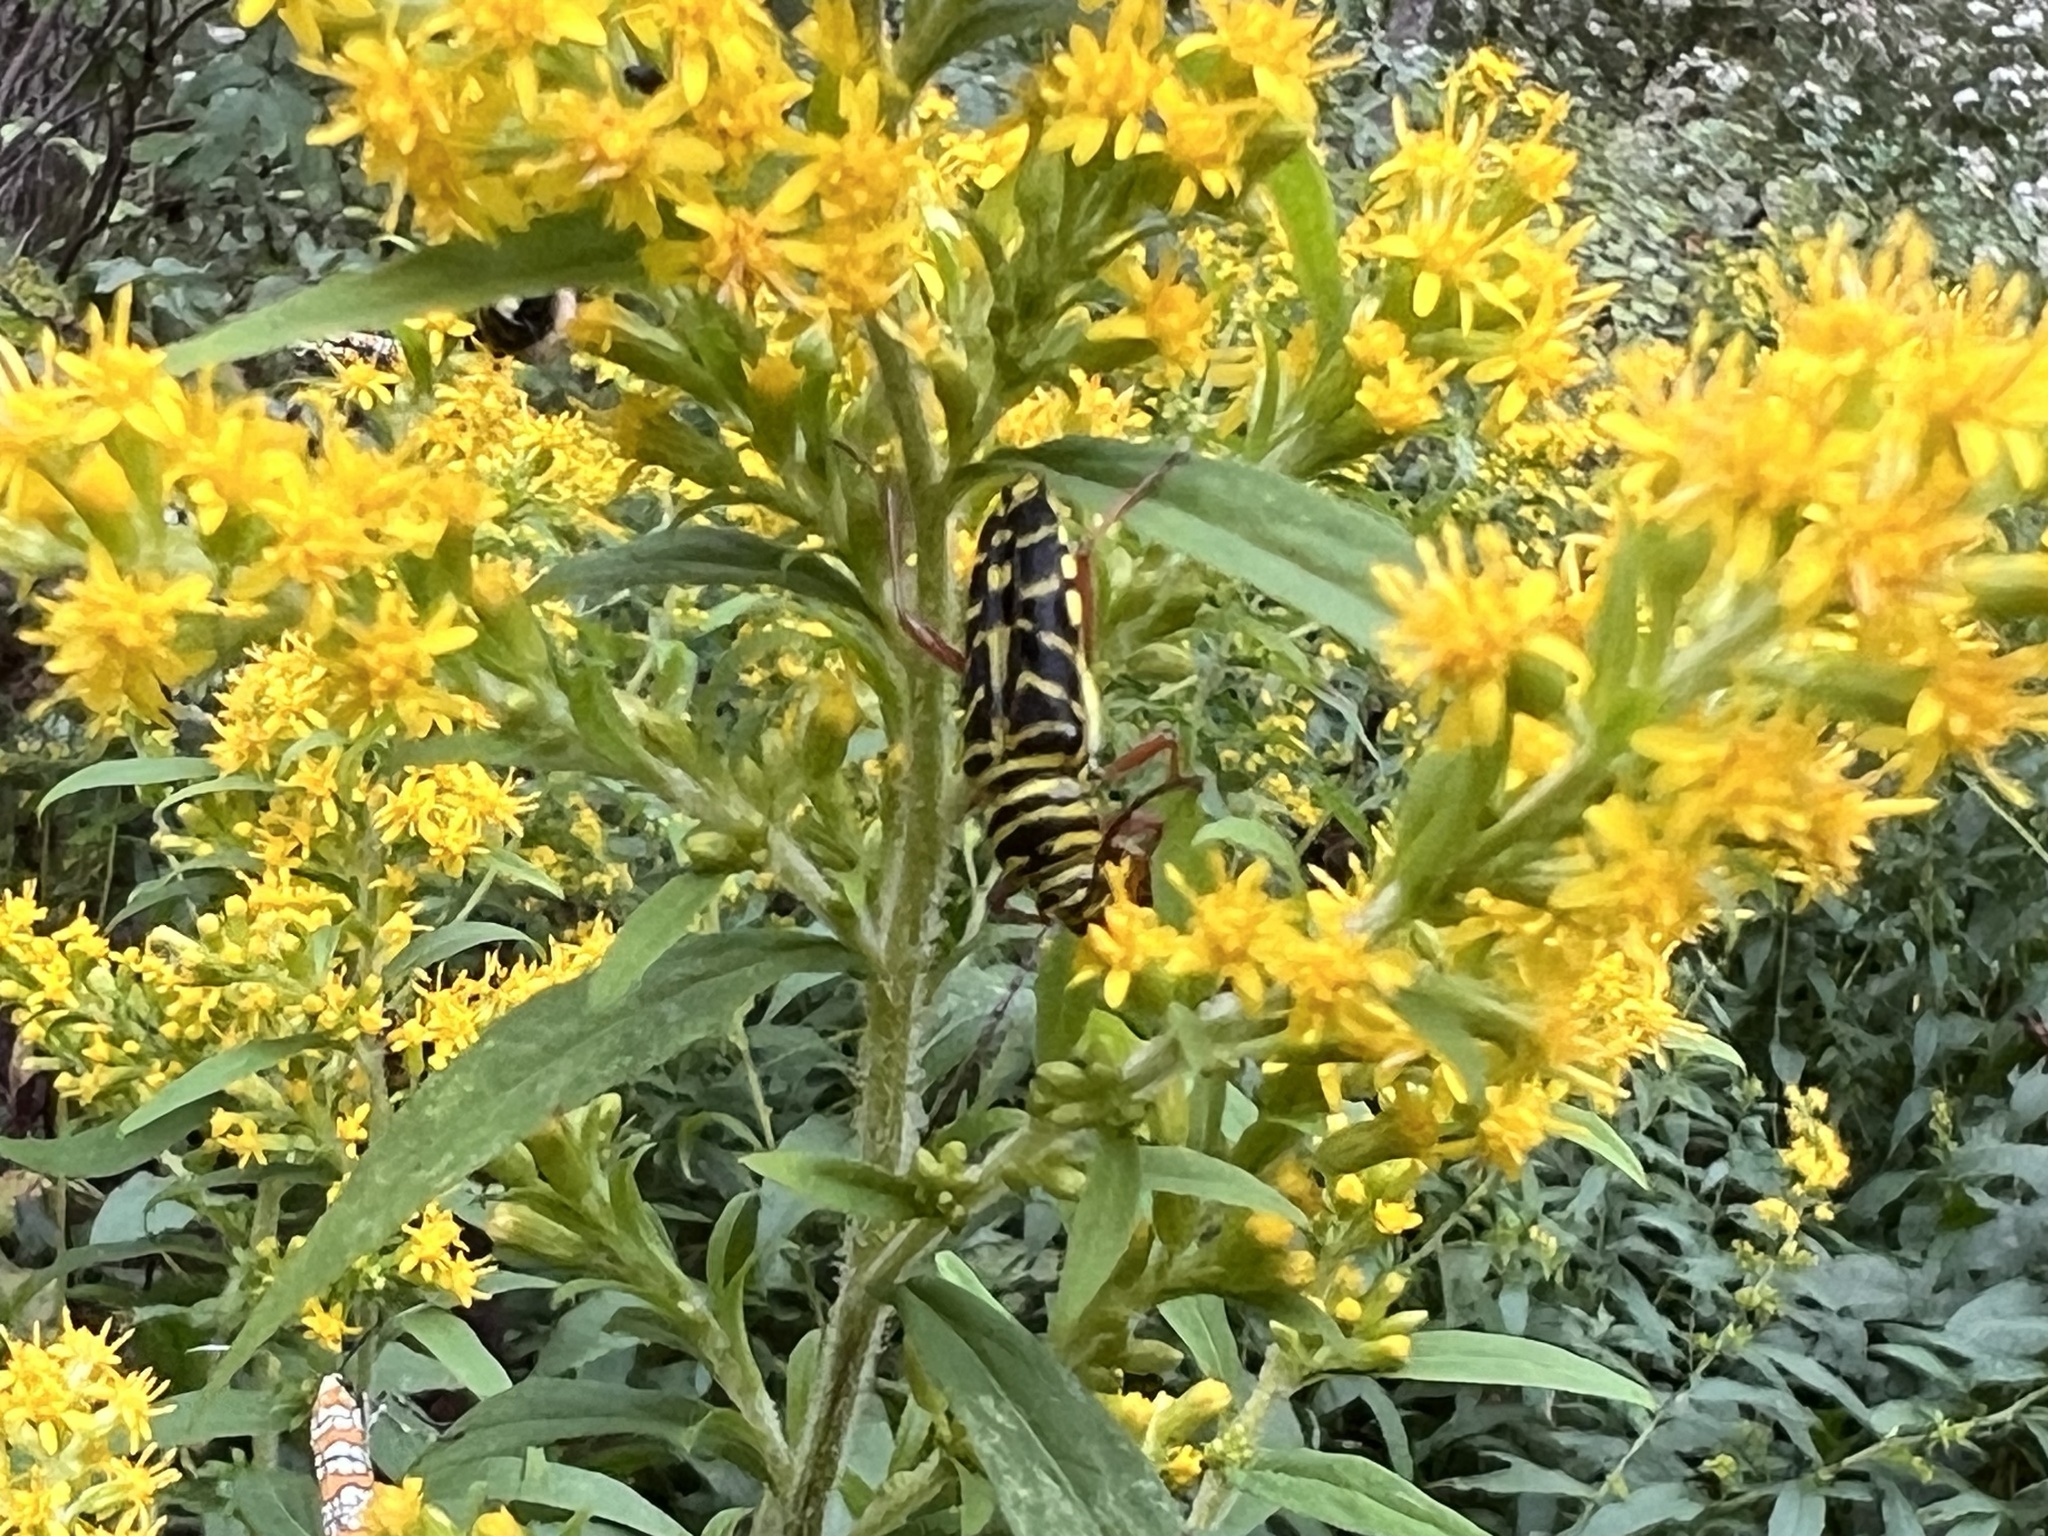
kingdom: Animalia
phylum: Arthropoda
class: Insecta
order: Coleoptera
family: Cerambycidae
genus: Megacyllene
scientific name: Megacyllene robiniae
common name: Locust borer
